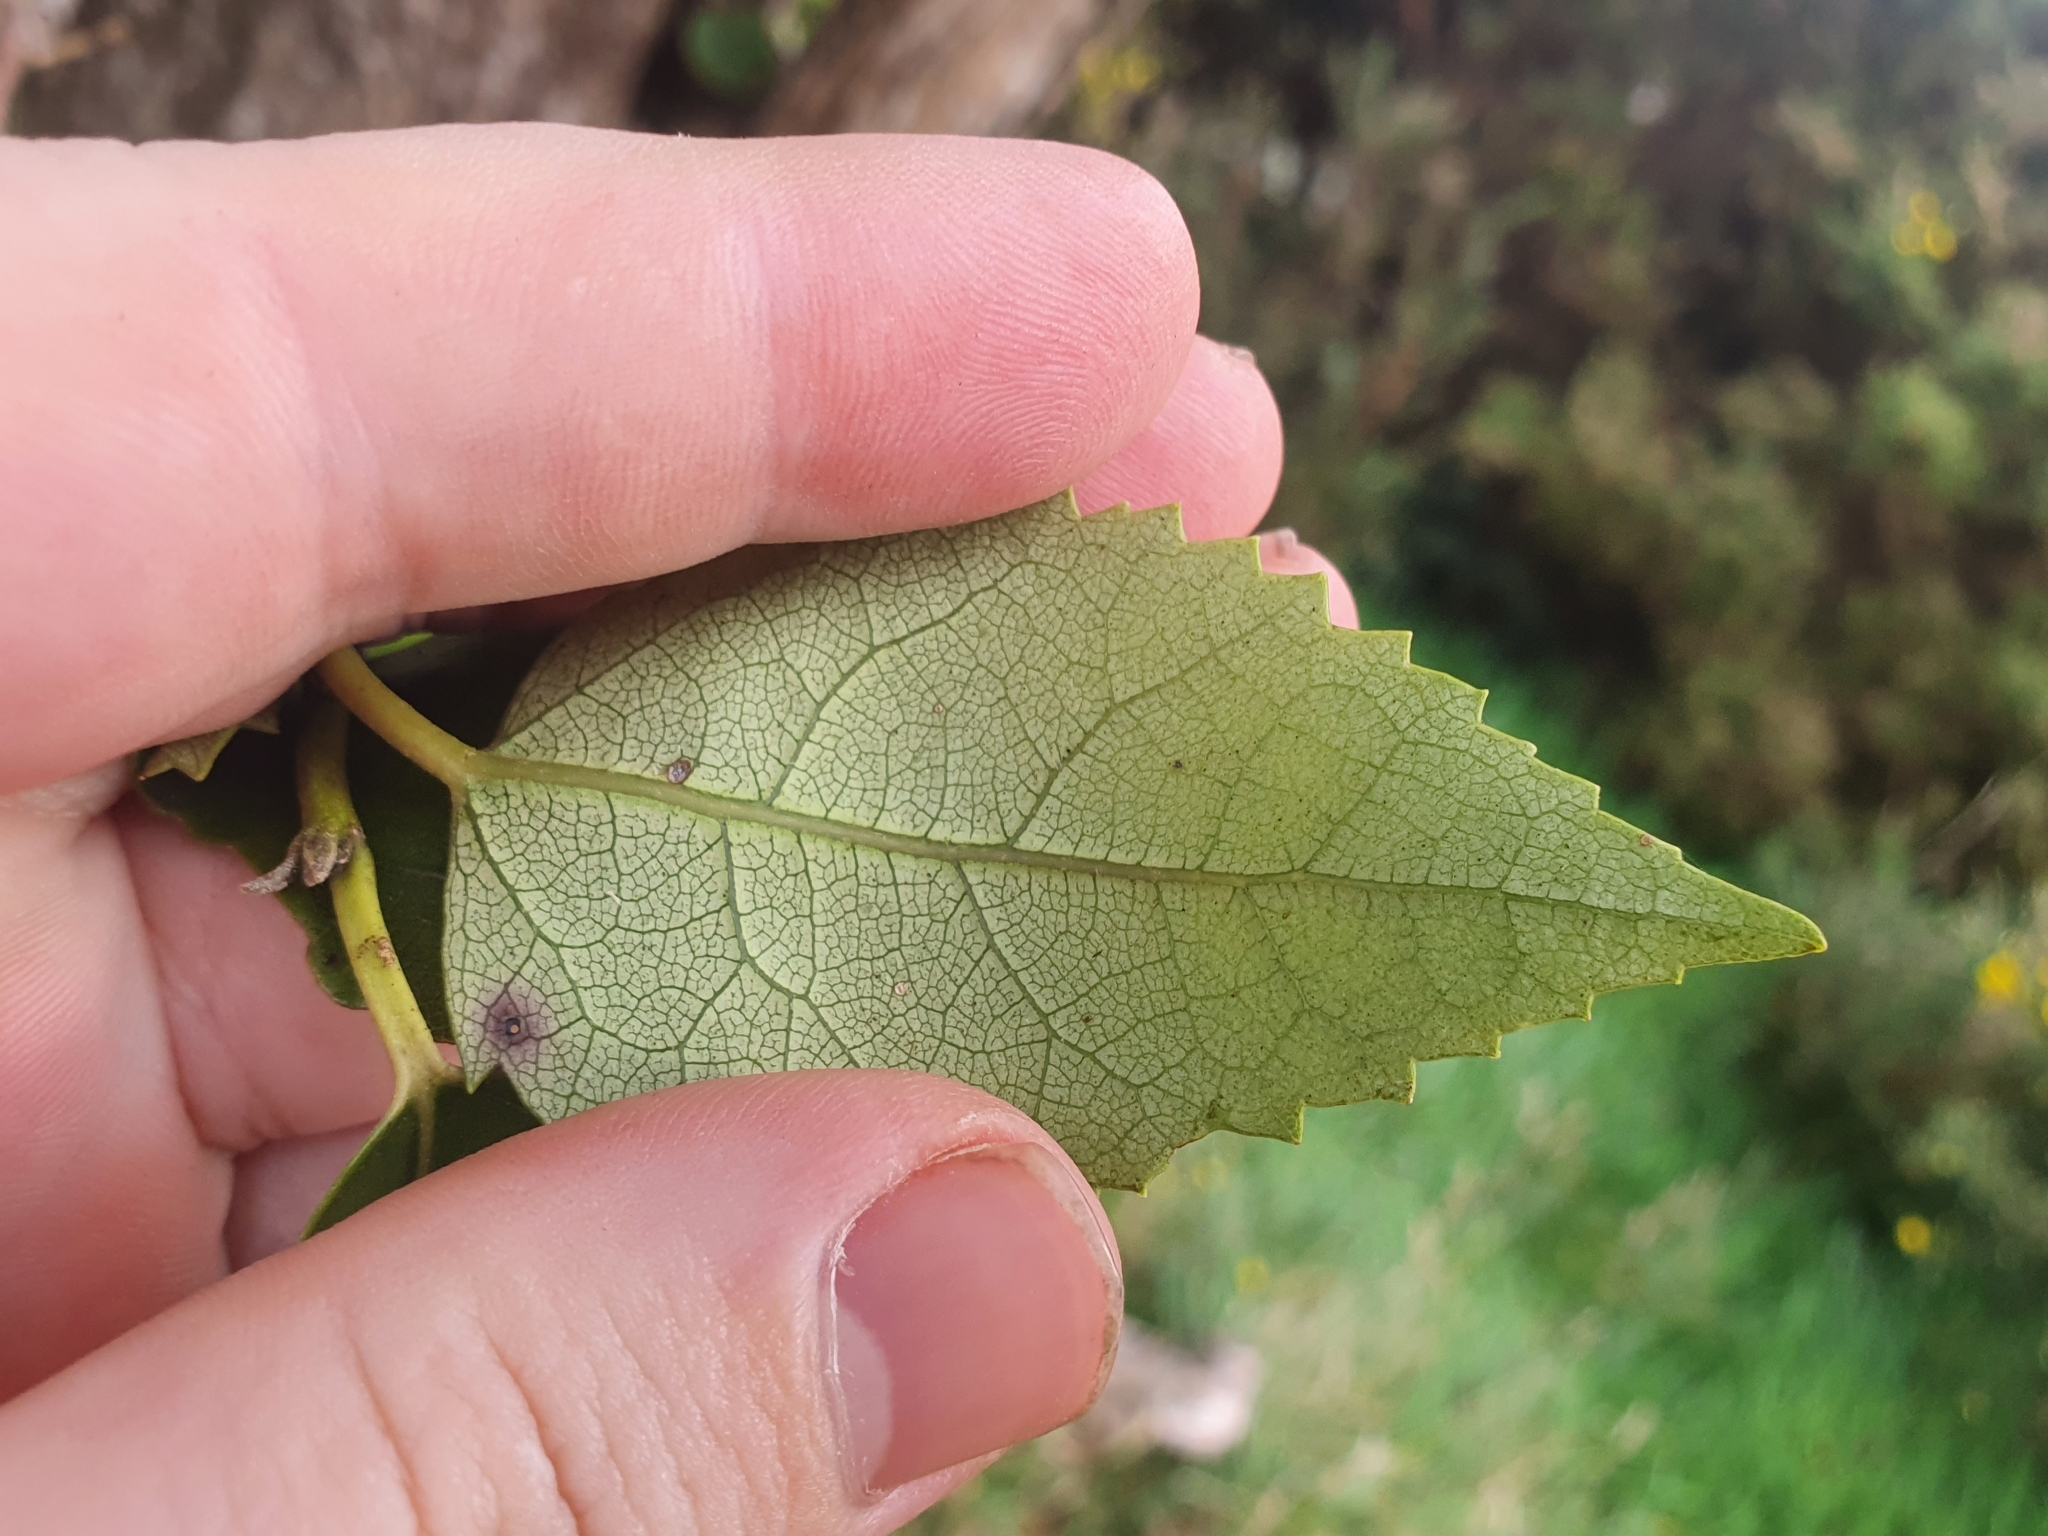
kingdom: Plantae
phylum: Tracheophyta
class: Magnoliopsida
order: Malvales
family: Malvaceae
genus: Hoheria
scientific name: Hoheria populnea
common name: Lacebark
